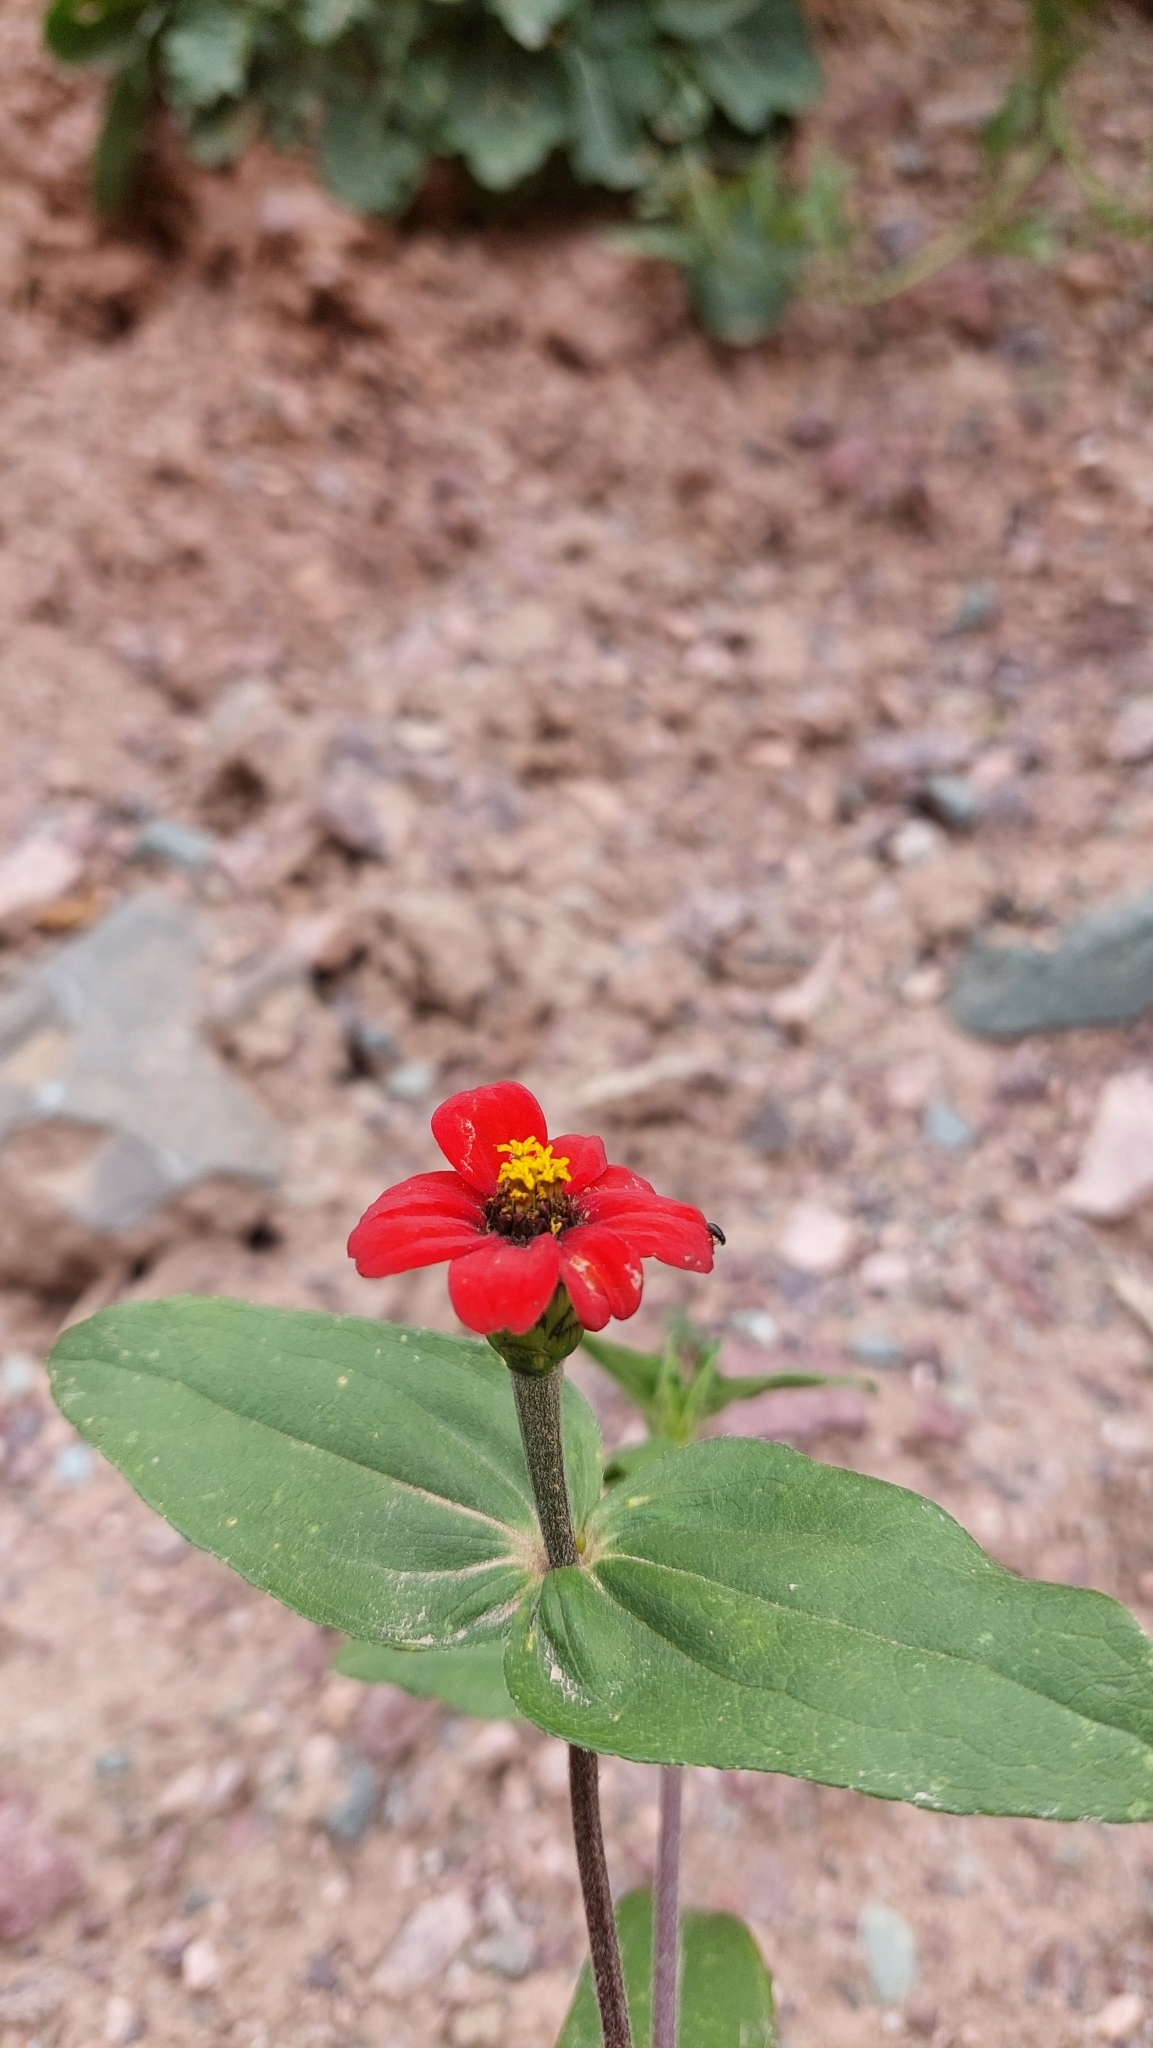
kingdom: Plantae
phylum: Tracheophyta
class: Magnoliopsida
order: Asterales
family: Asteraceae
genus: Zinnia
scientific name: Zinnia peruviana
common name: Peruvian zinnia
